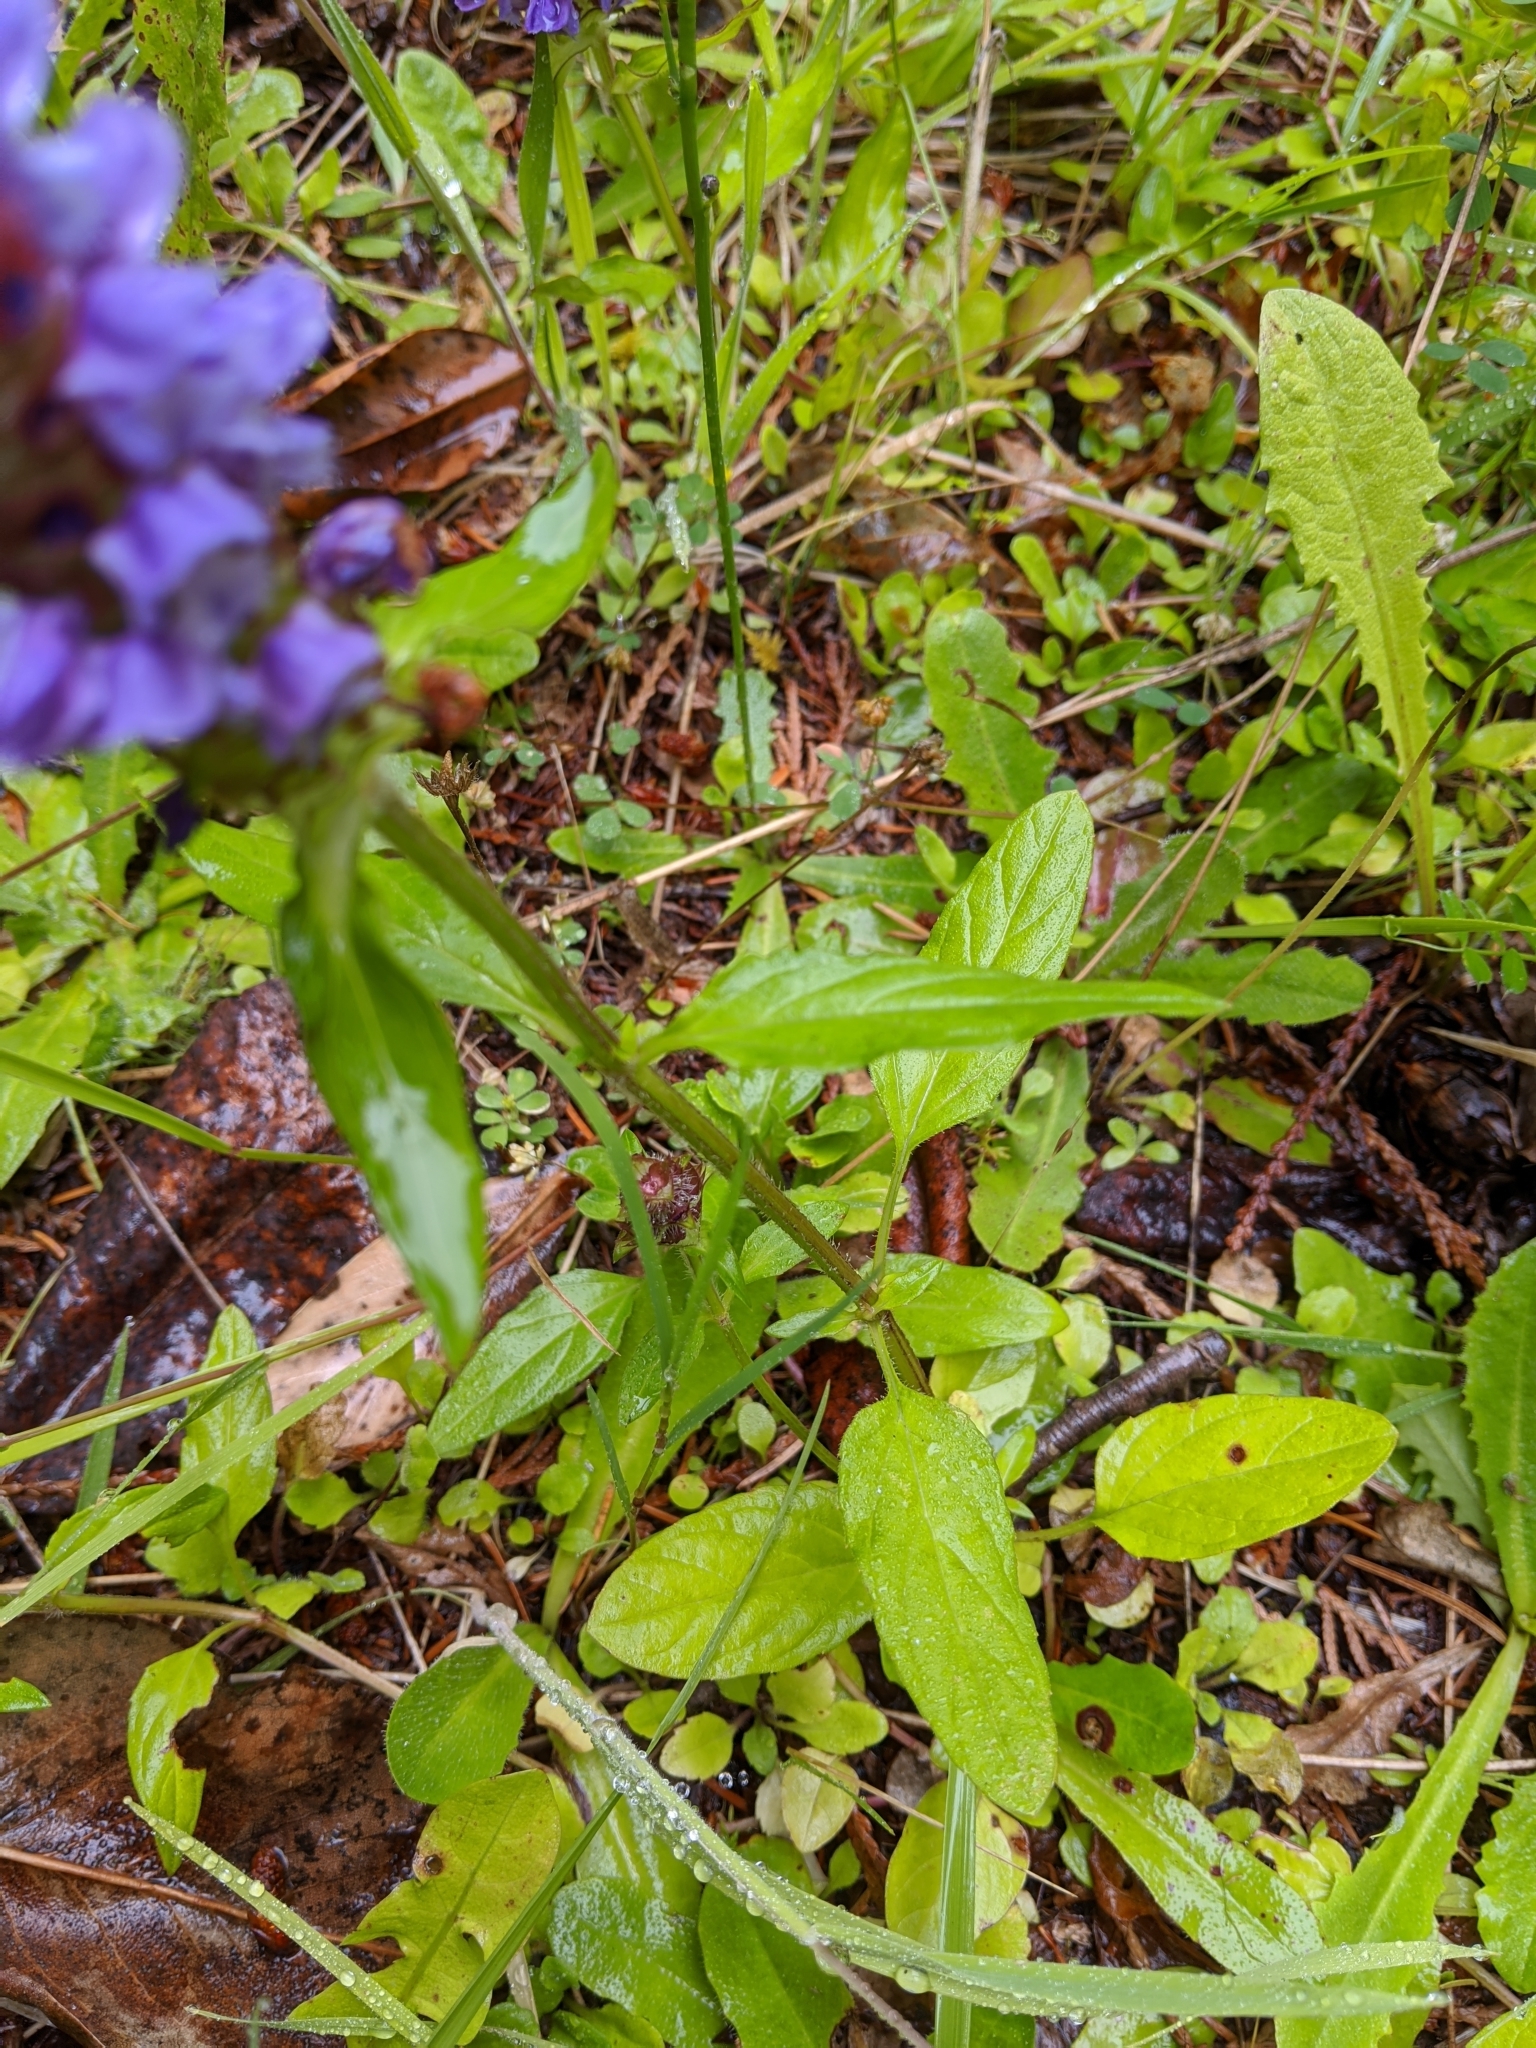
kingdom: Plantae
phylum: Tracheophyta
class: Magnoliopsida
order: Lamiales
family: Lamiaceae
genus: Prunella
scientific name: Prunella vulgaris
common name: Heal-all
